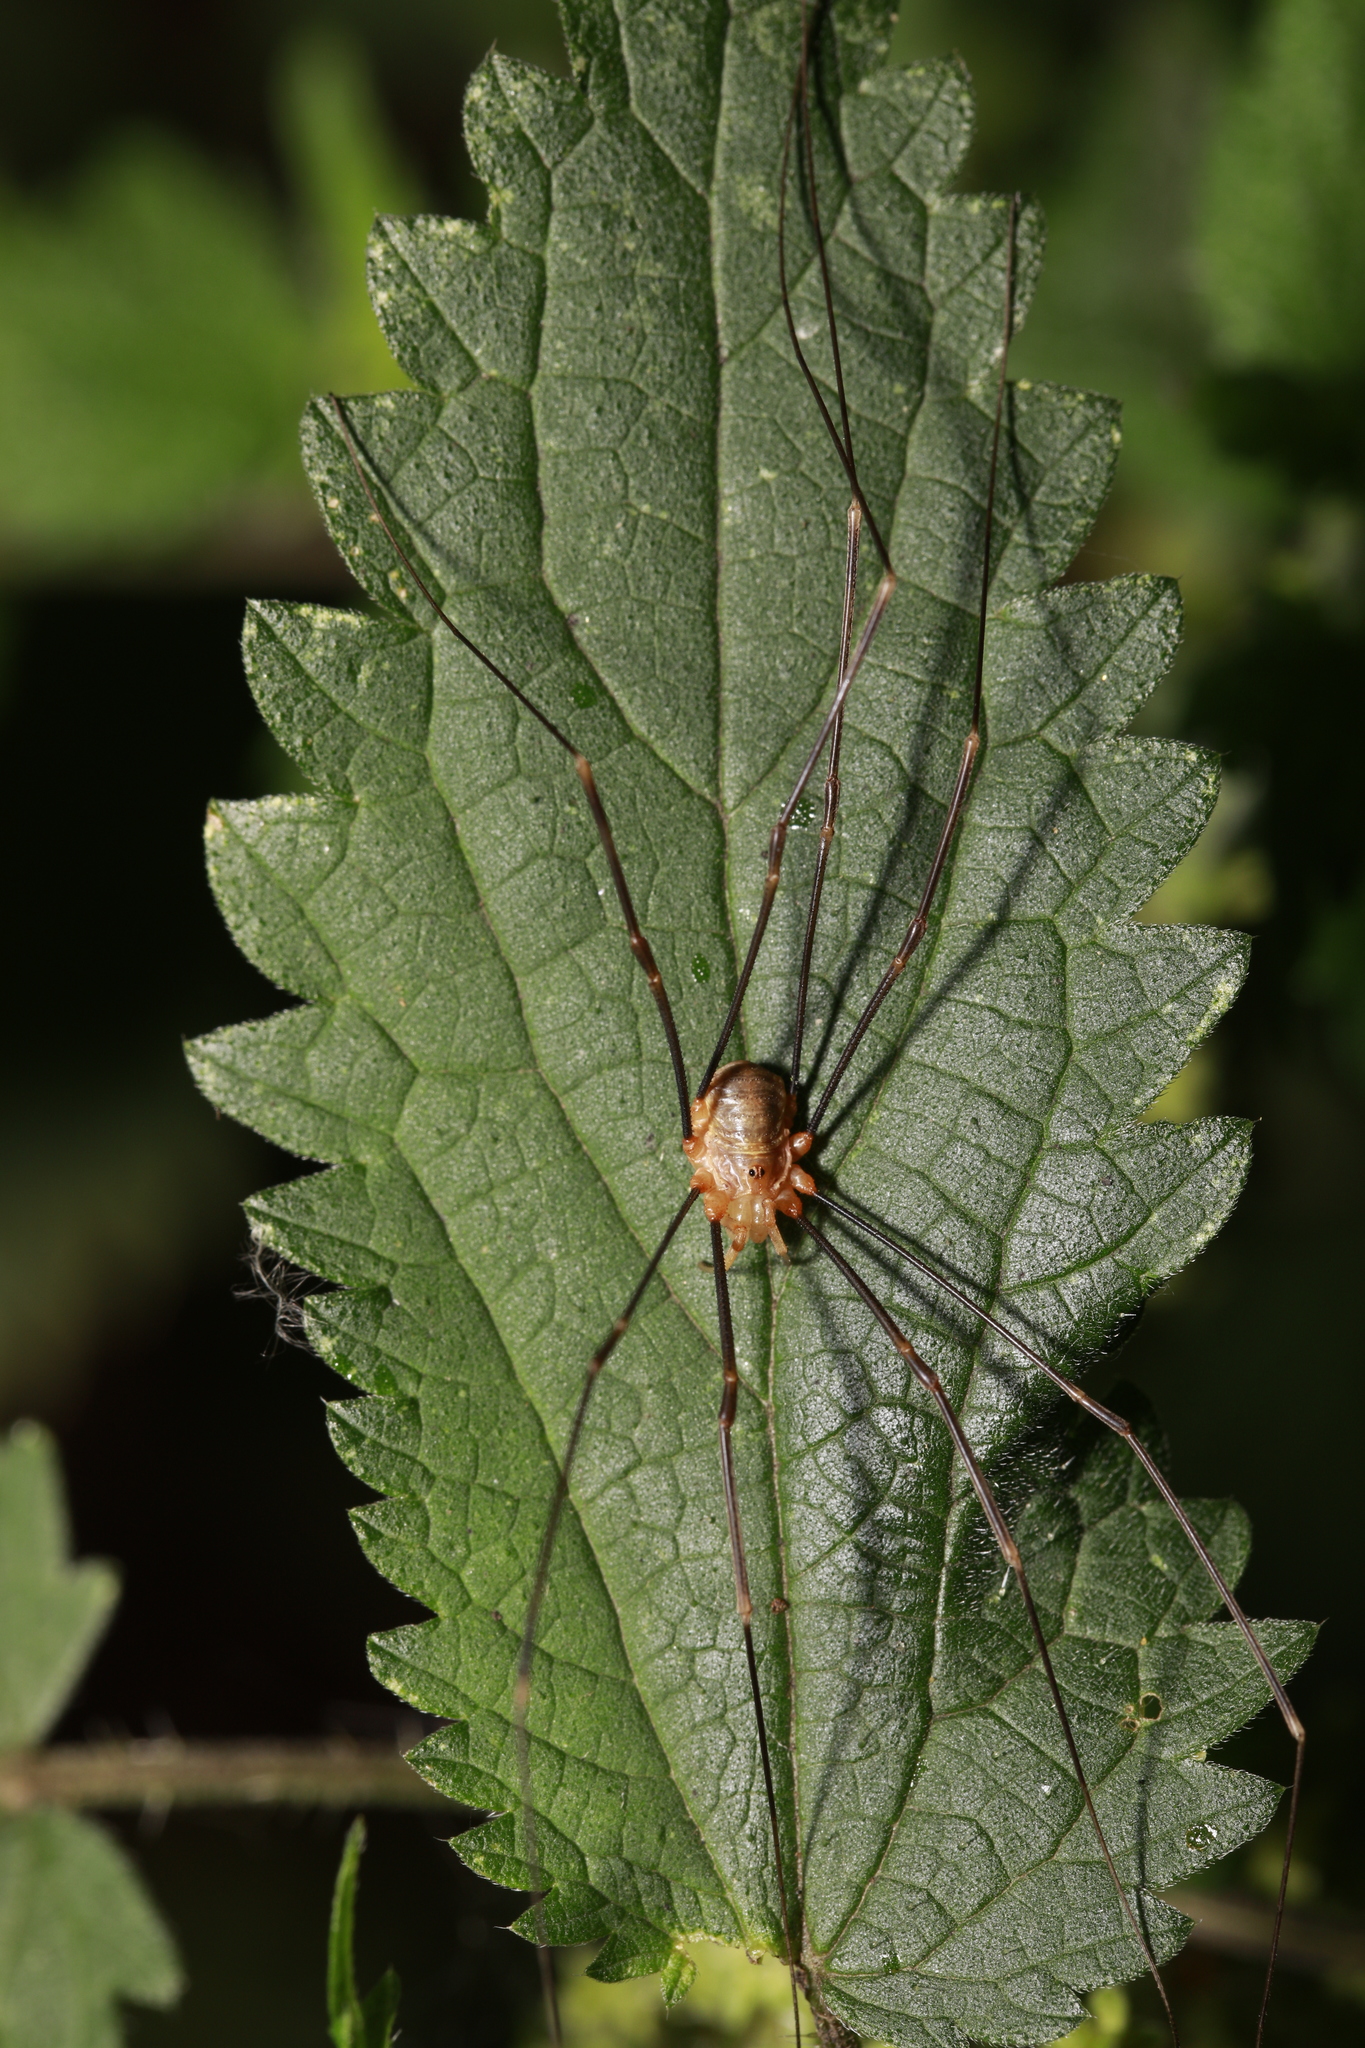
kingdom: Animalia
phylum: Arthropoda
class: Arachnida
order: Opiliones
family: Phalangiidae
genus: Opilio
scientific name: Opilio canestrinii
